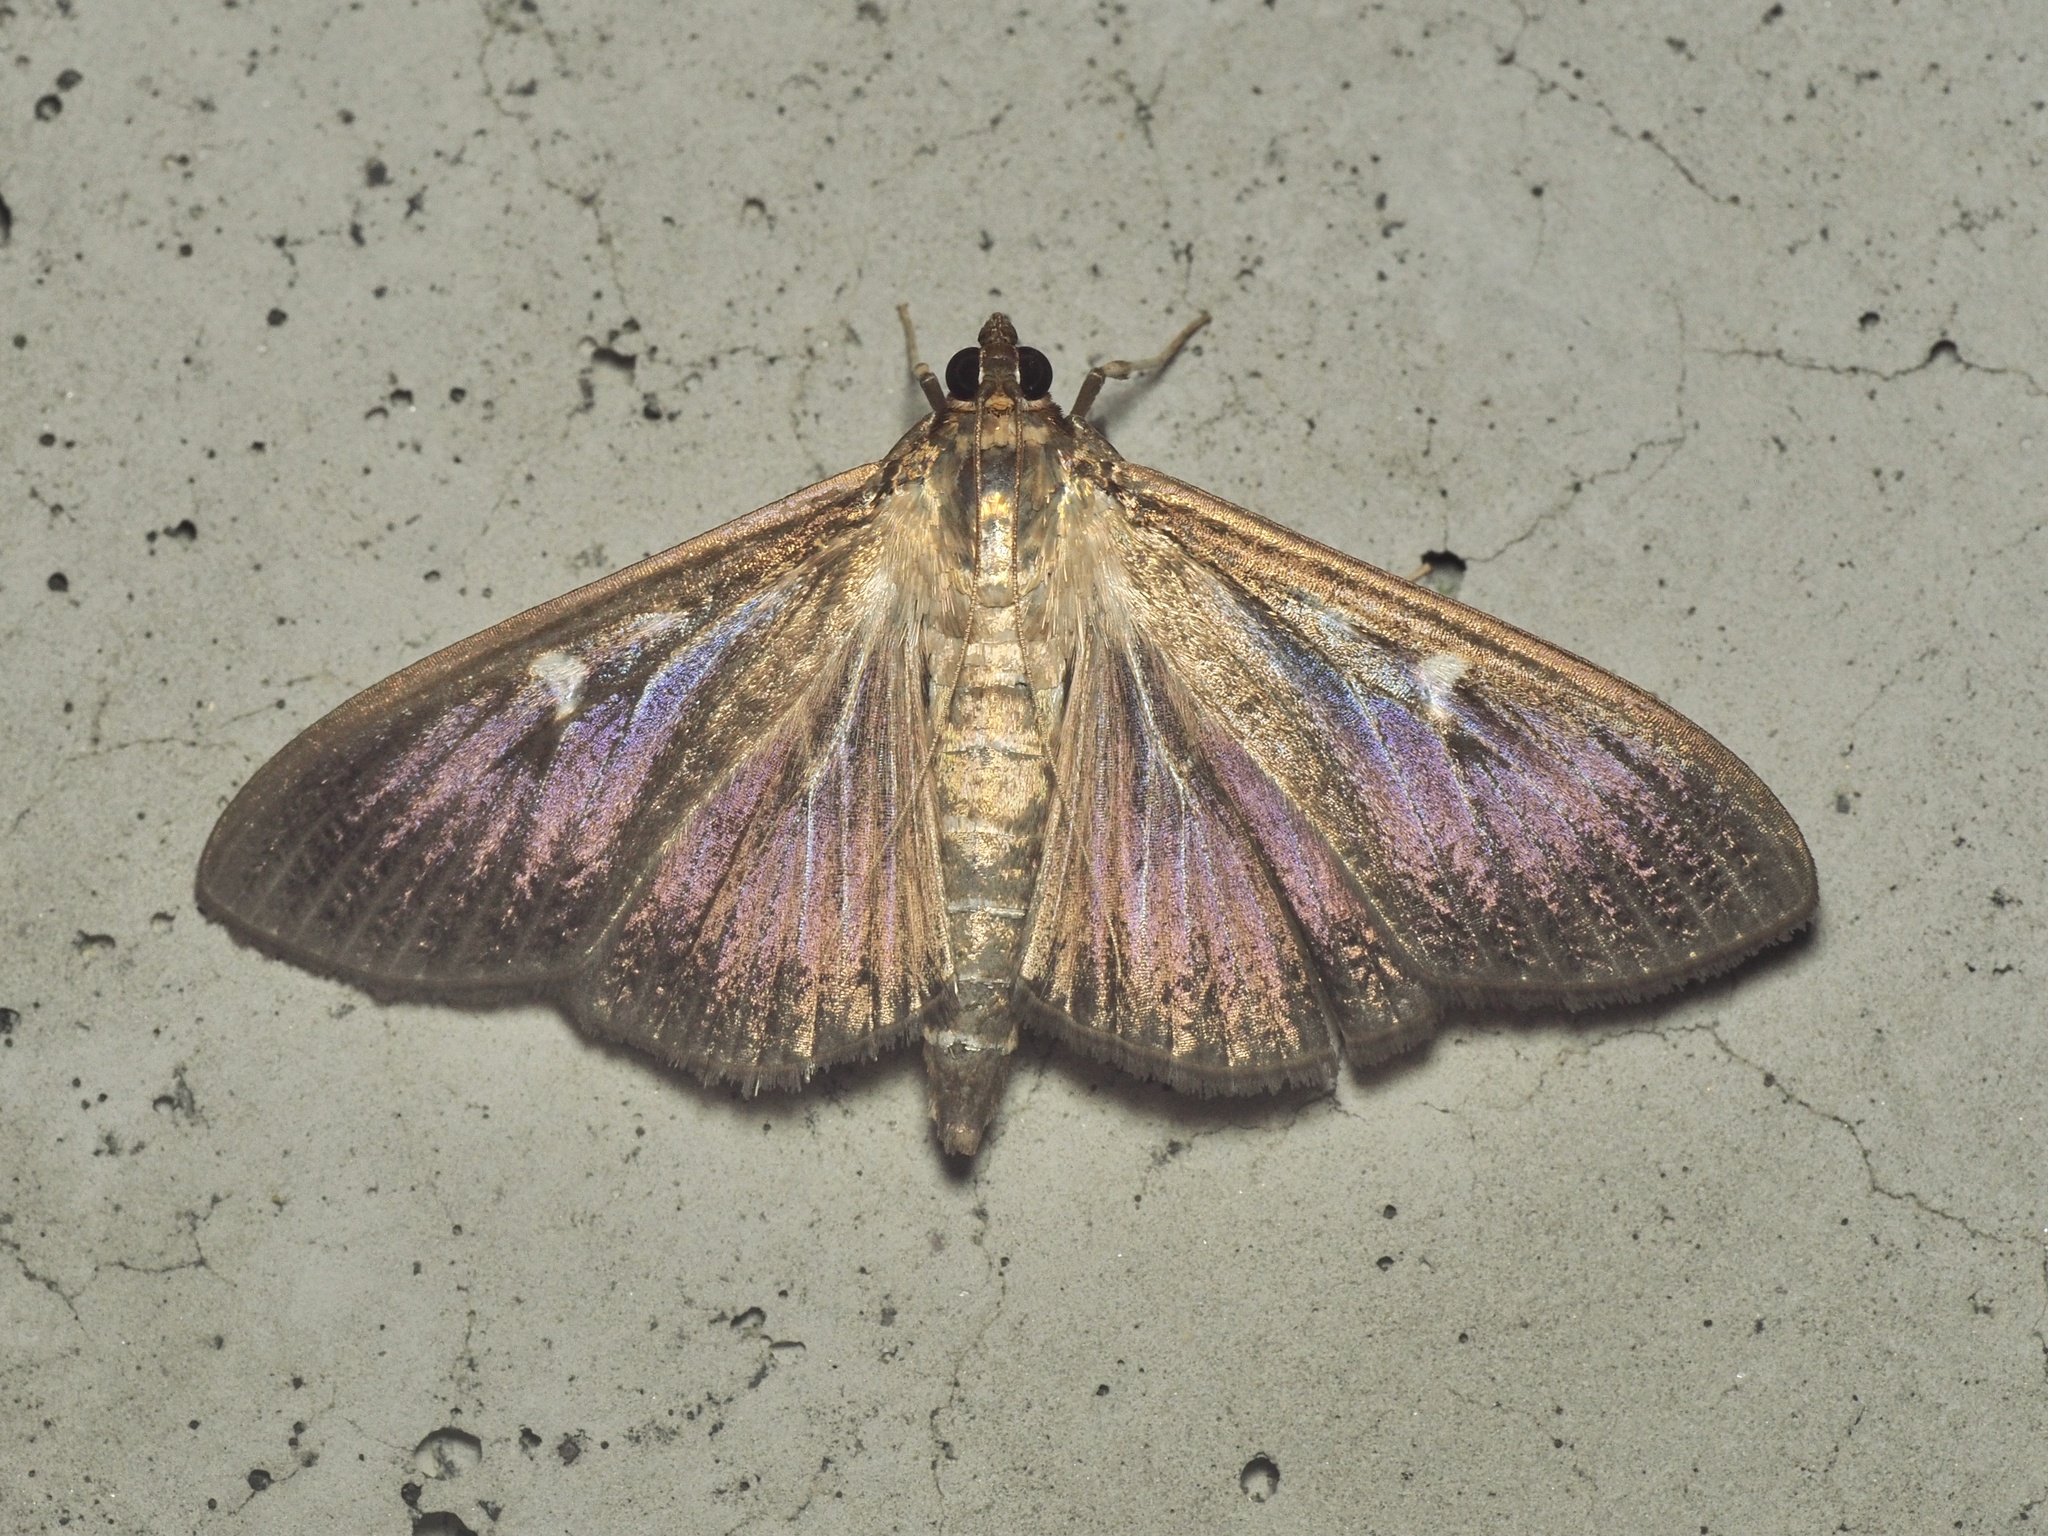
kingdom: Animalia
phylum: Arthropoda
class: Insecta
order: Lepidoptera
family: Crambidae
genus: Cydalima
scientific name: Cydalima perspectalis
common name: Box tree moth
